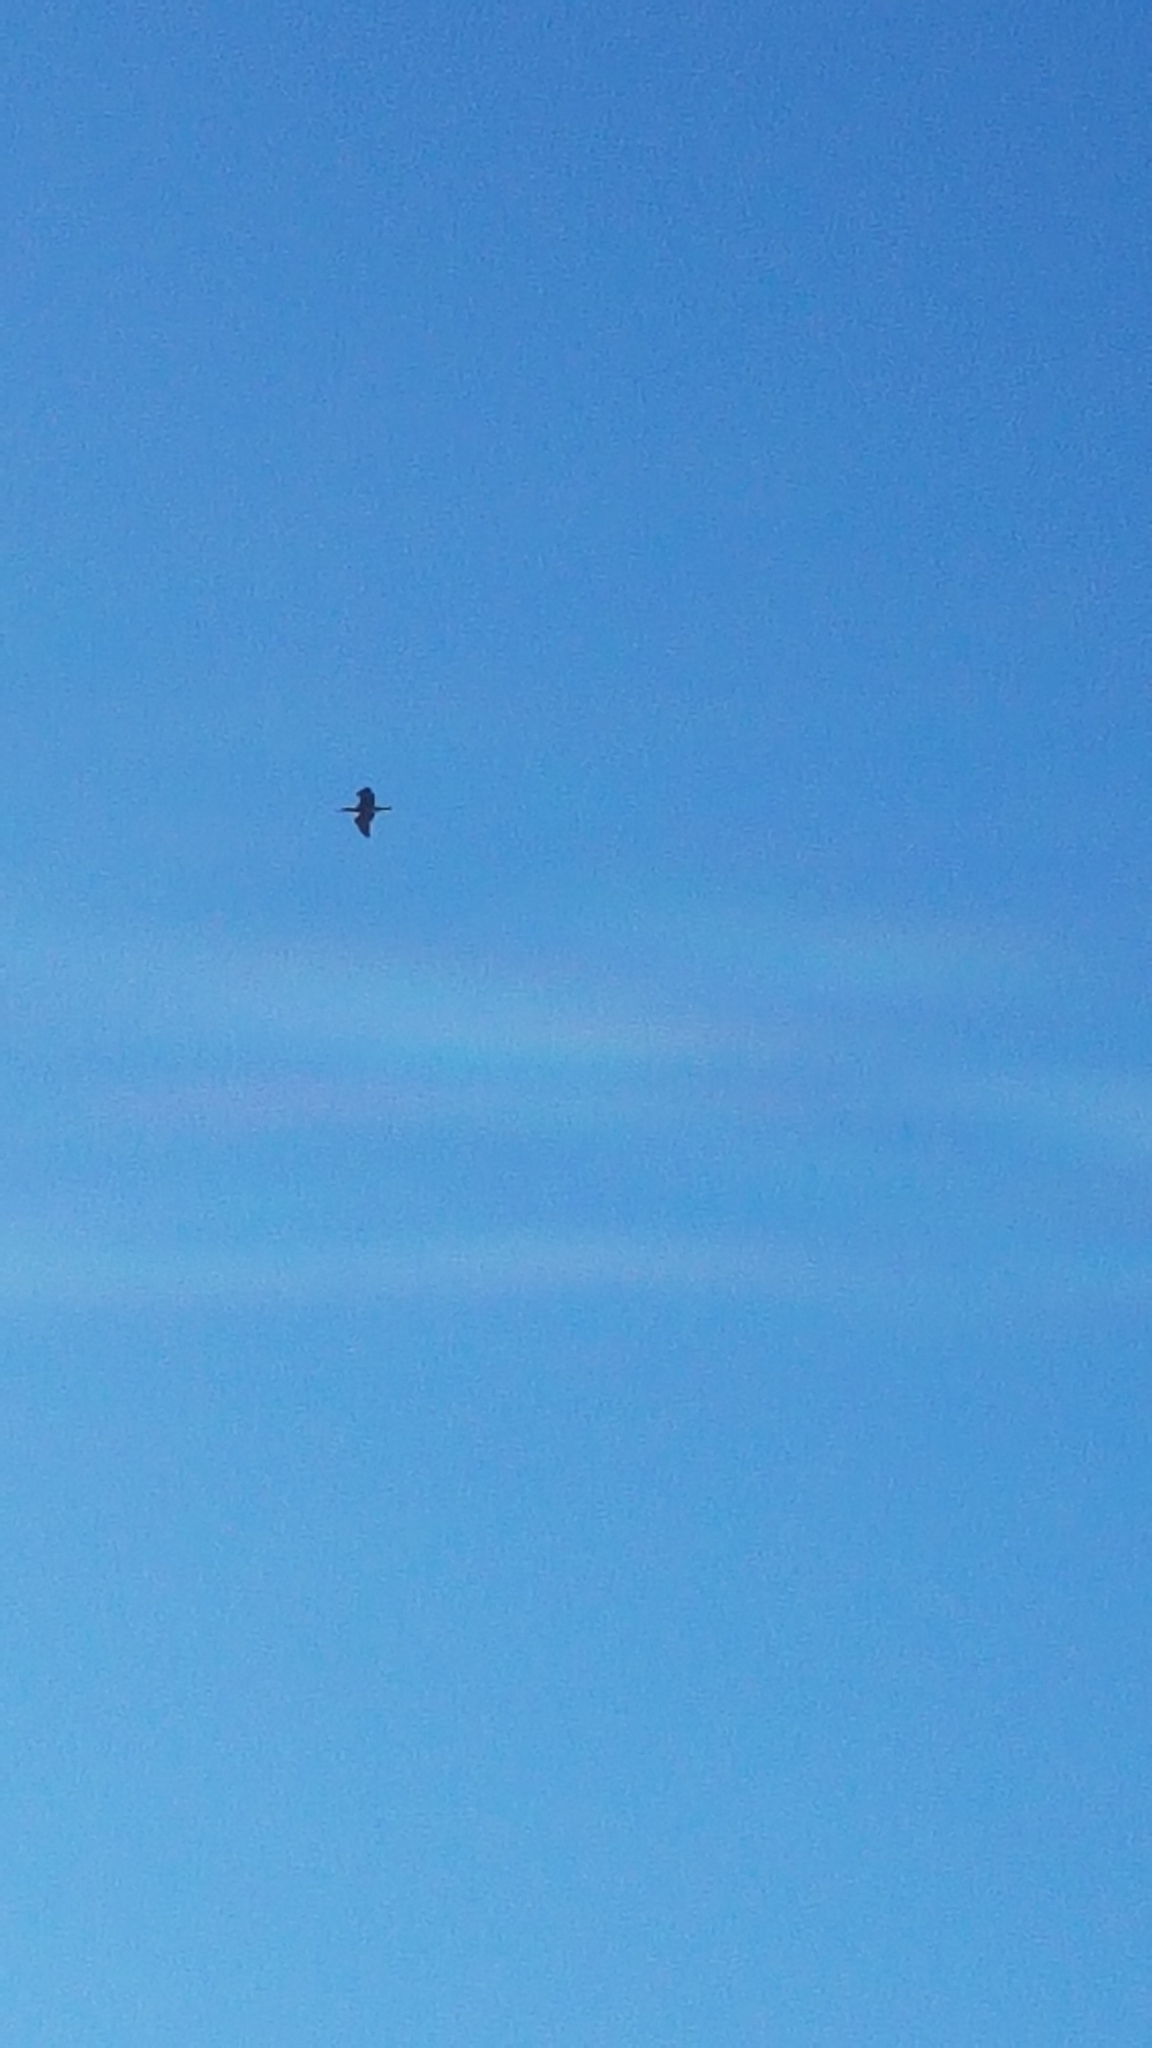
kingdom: Animalia
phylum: Chordata
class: Aves
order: Suliformes
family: Phalacrocoracidae
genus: Phalacrocorax
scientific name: Phalacrocorax carbo
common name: Great cormorant
